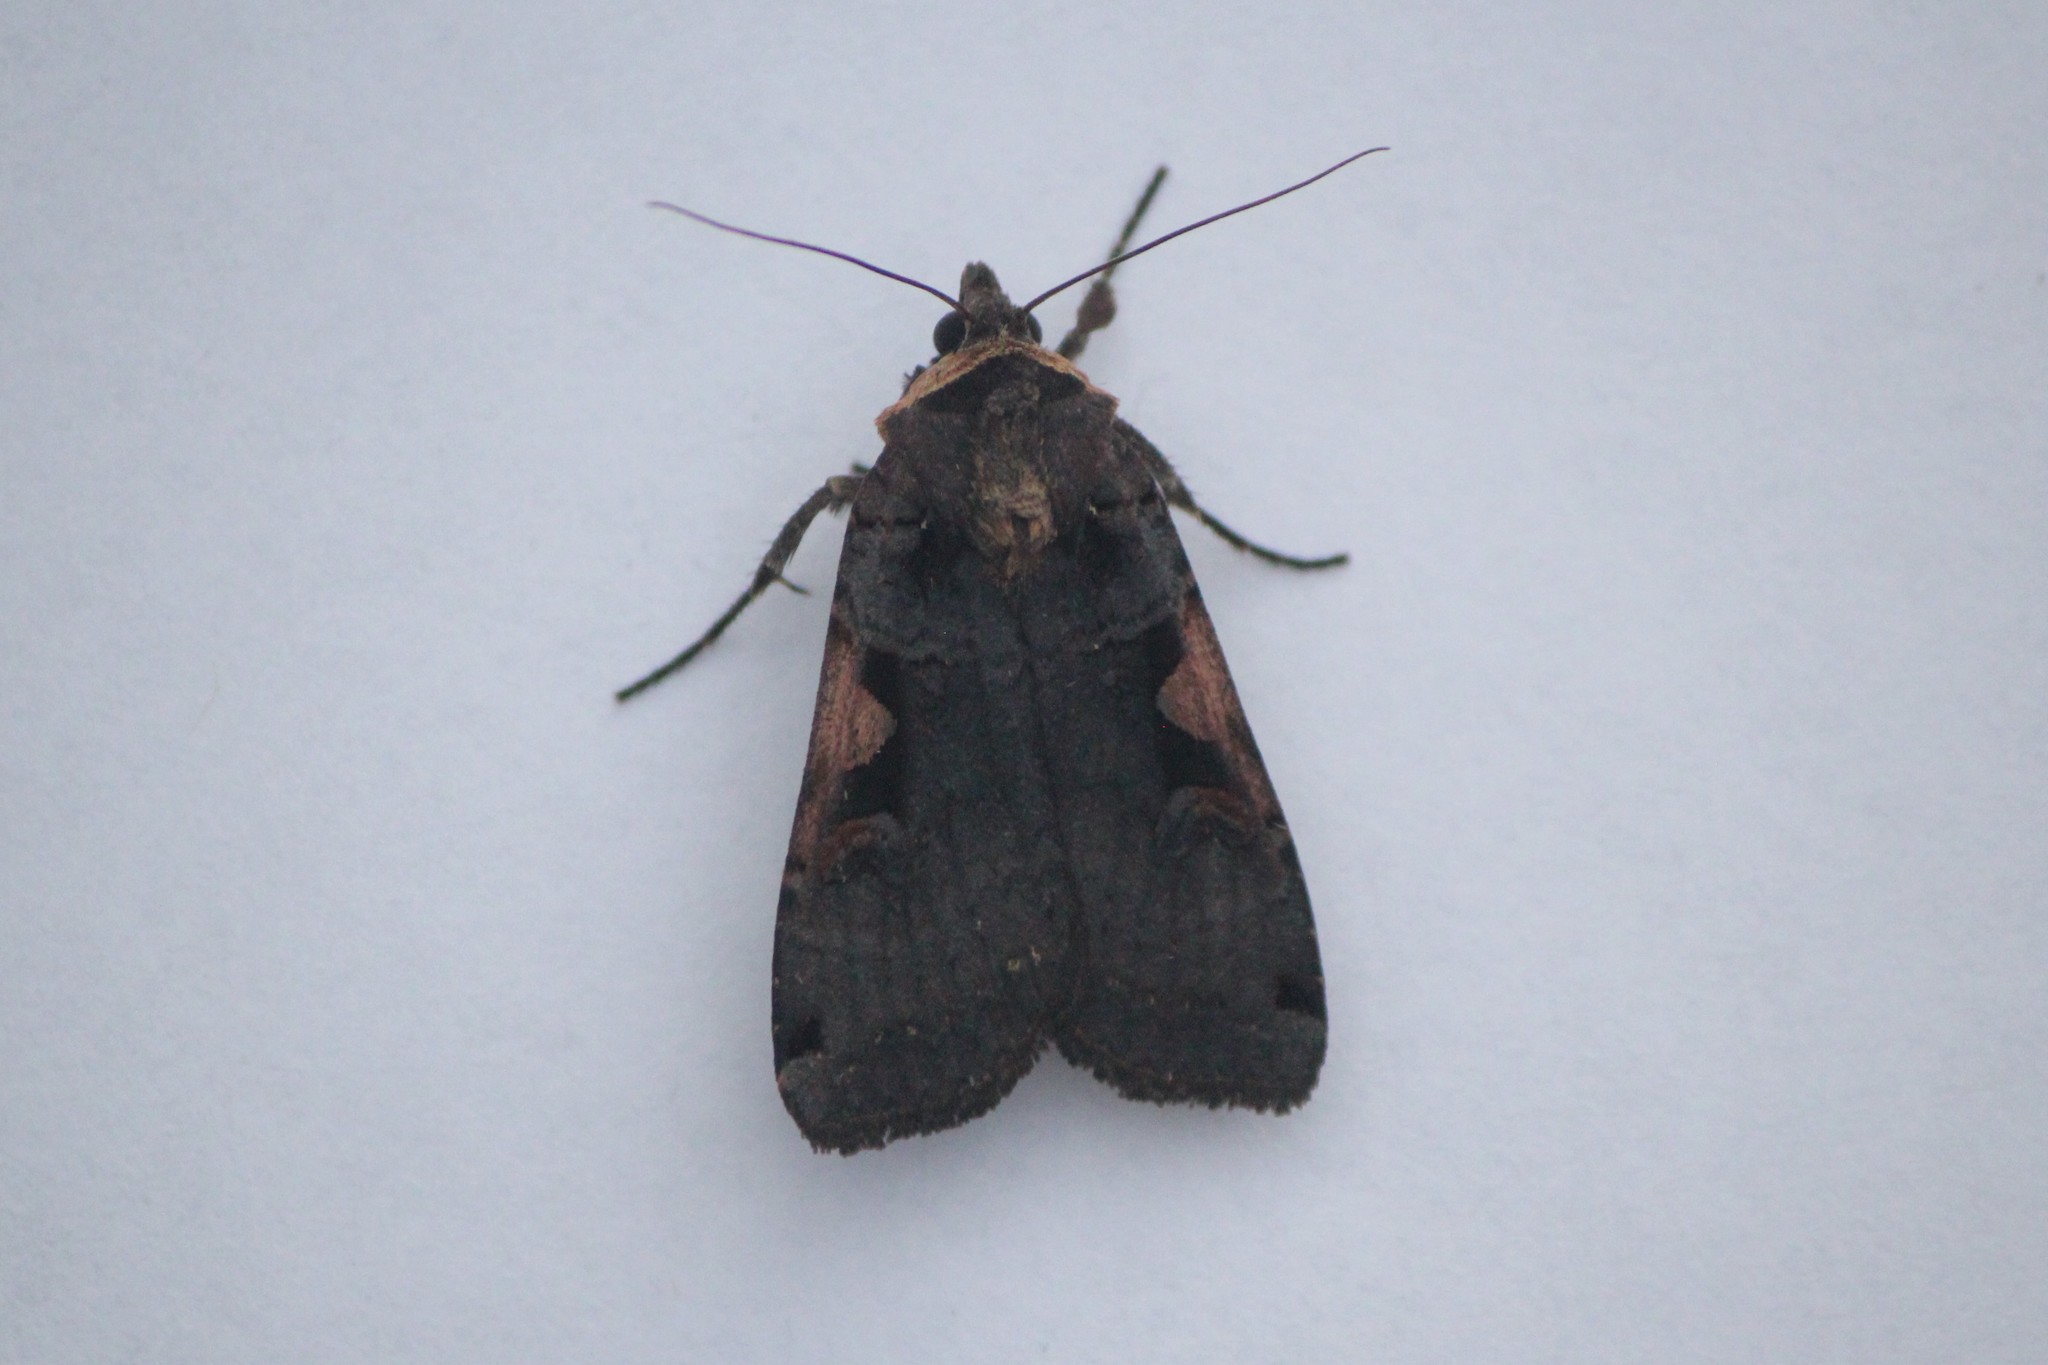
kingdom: Animalia
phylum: Arthropoda
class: Insecta
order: Lepidoptera
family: Noctuidae
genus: Xestia
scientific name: Xestia dolosa
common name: Cutworm moth
